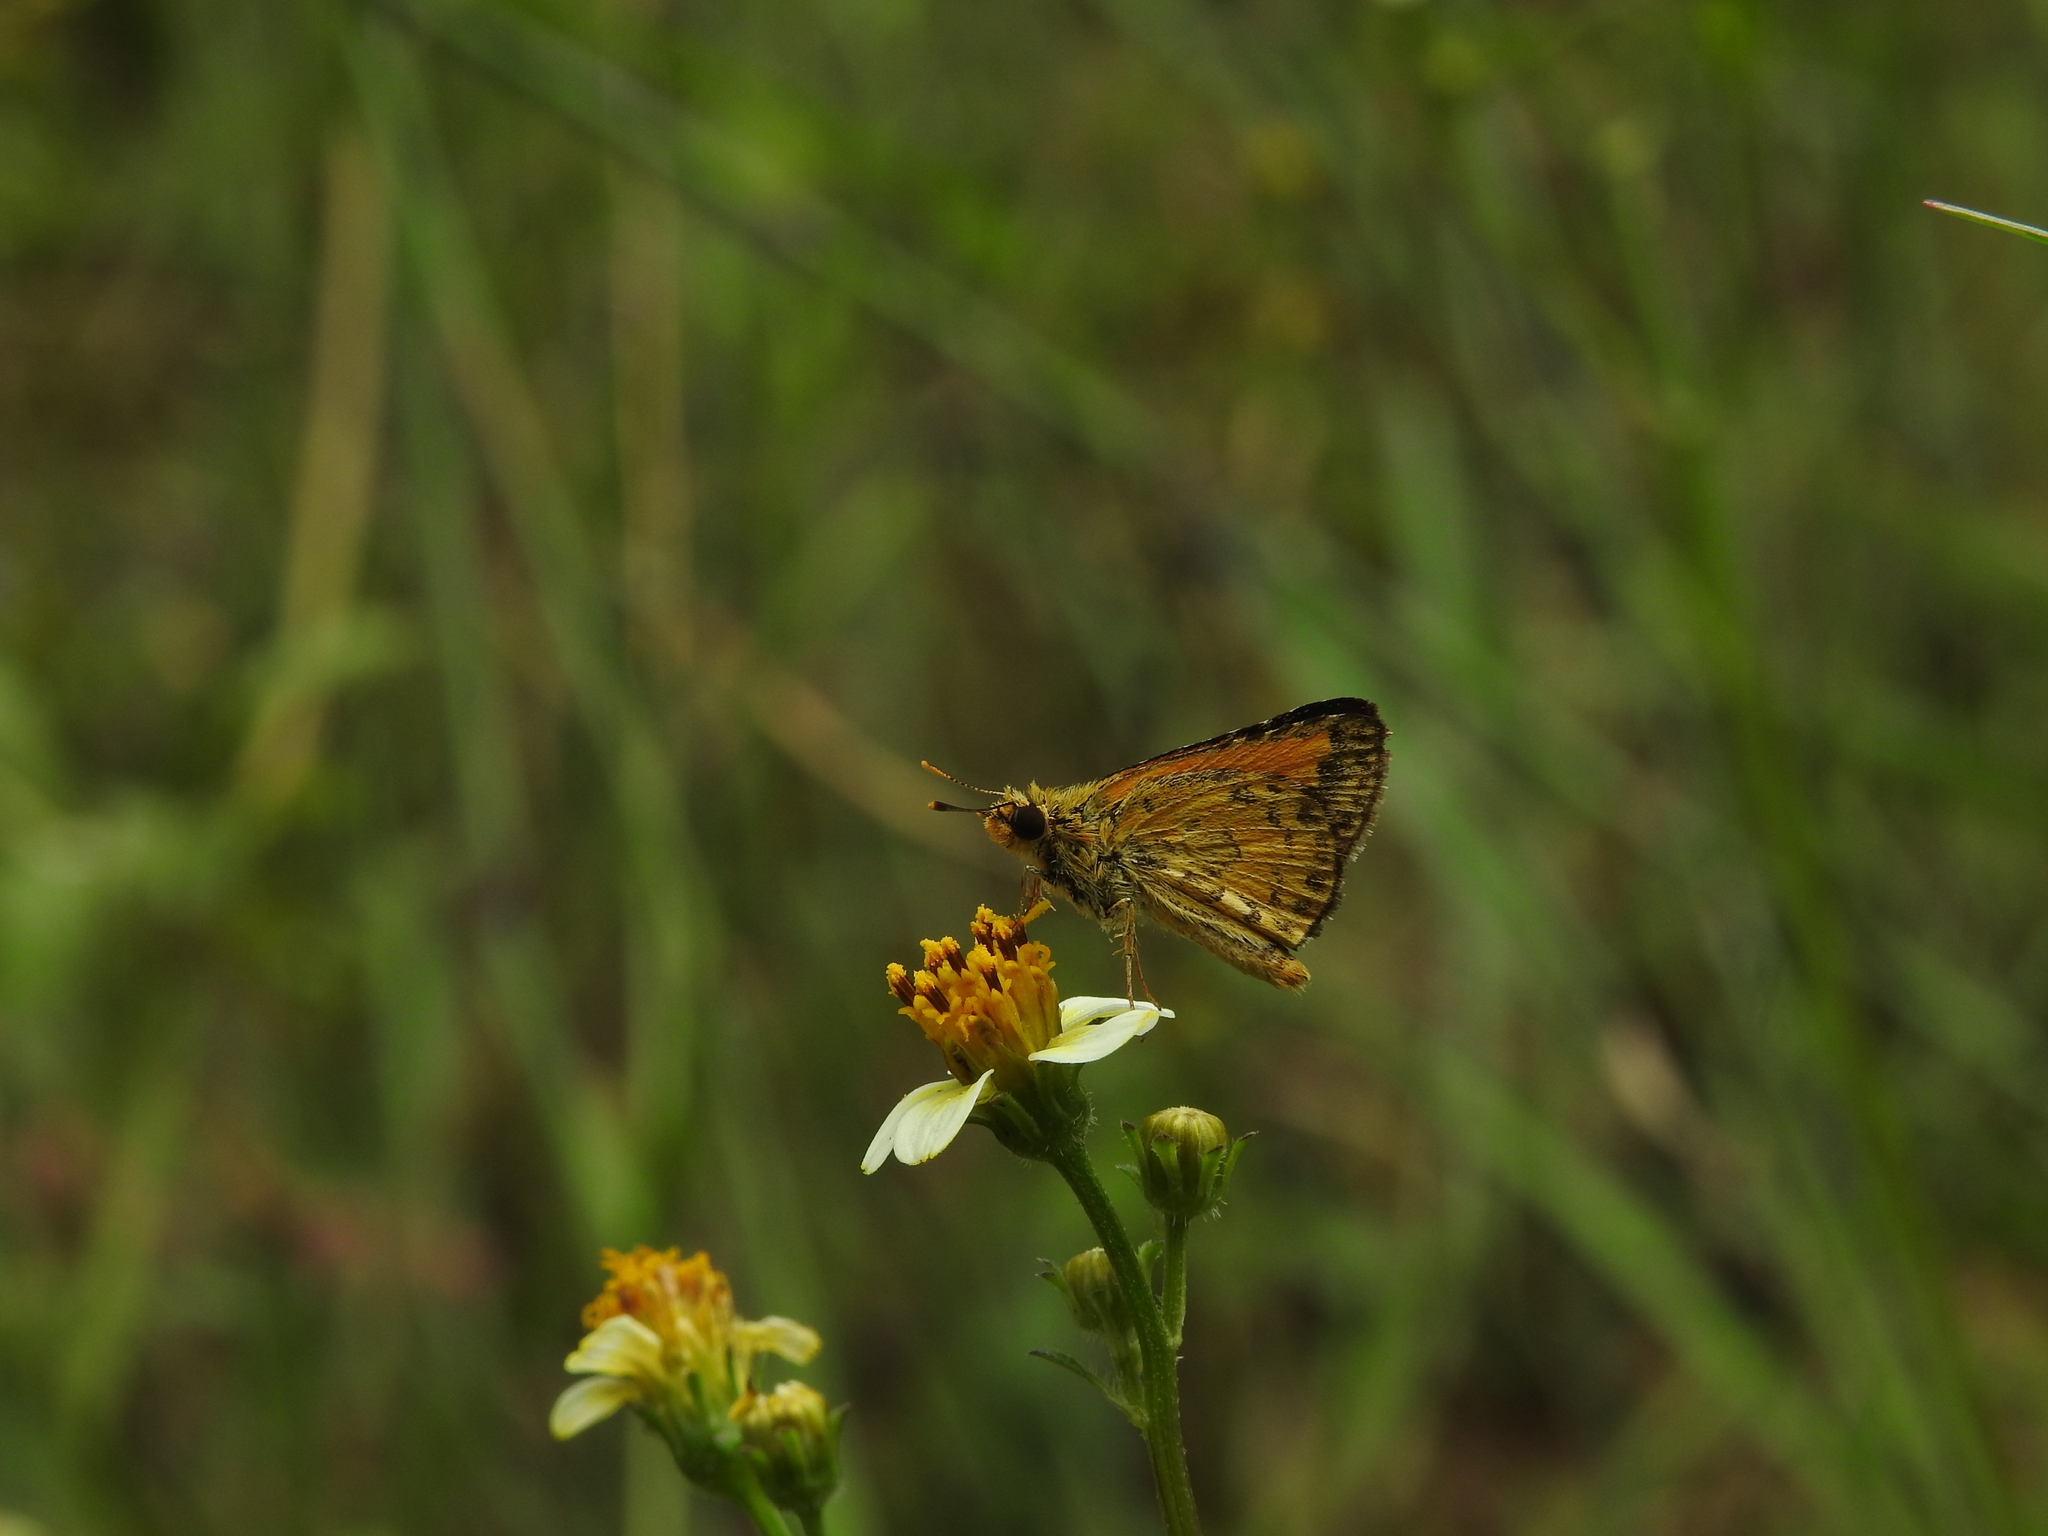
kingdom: Animalia
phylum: Arthropoda
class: Insecta
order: Lepidoptera
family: Hesperiidae
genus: Ampittia
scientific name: Ampittia dioscorides
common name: Common bush hopper
